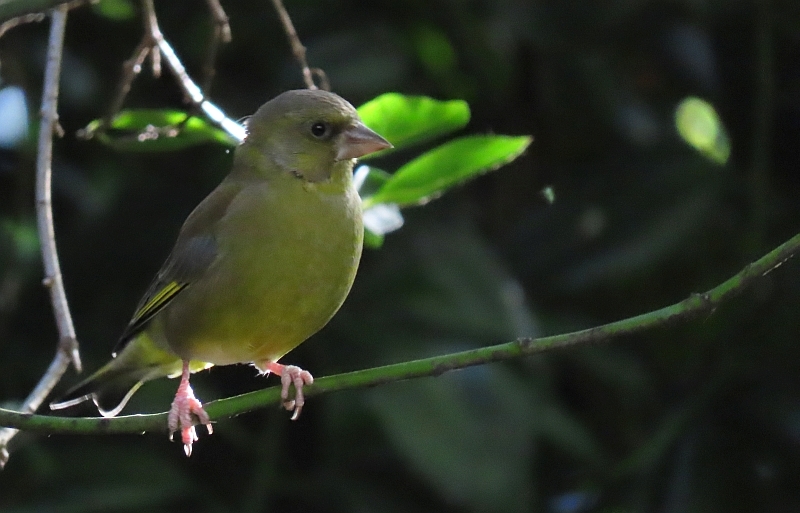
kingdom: Plantae
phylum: Tracheophyta
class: Liliopsida
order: Poales
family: Poaceae
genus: Chloris
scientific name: Chloris chloris
